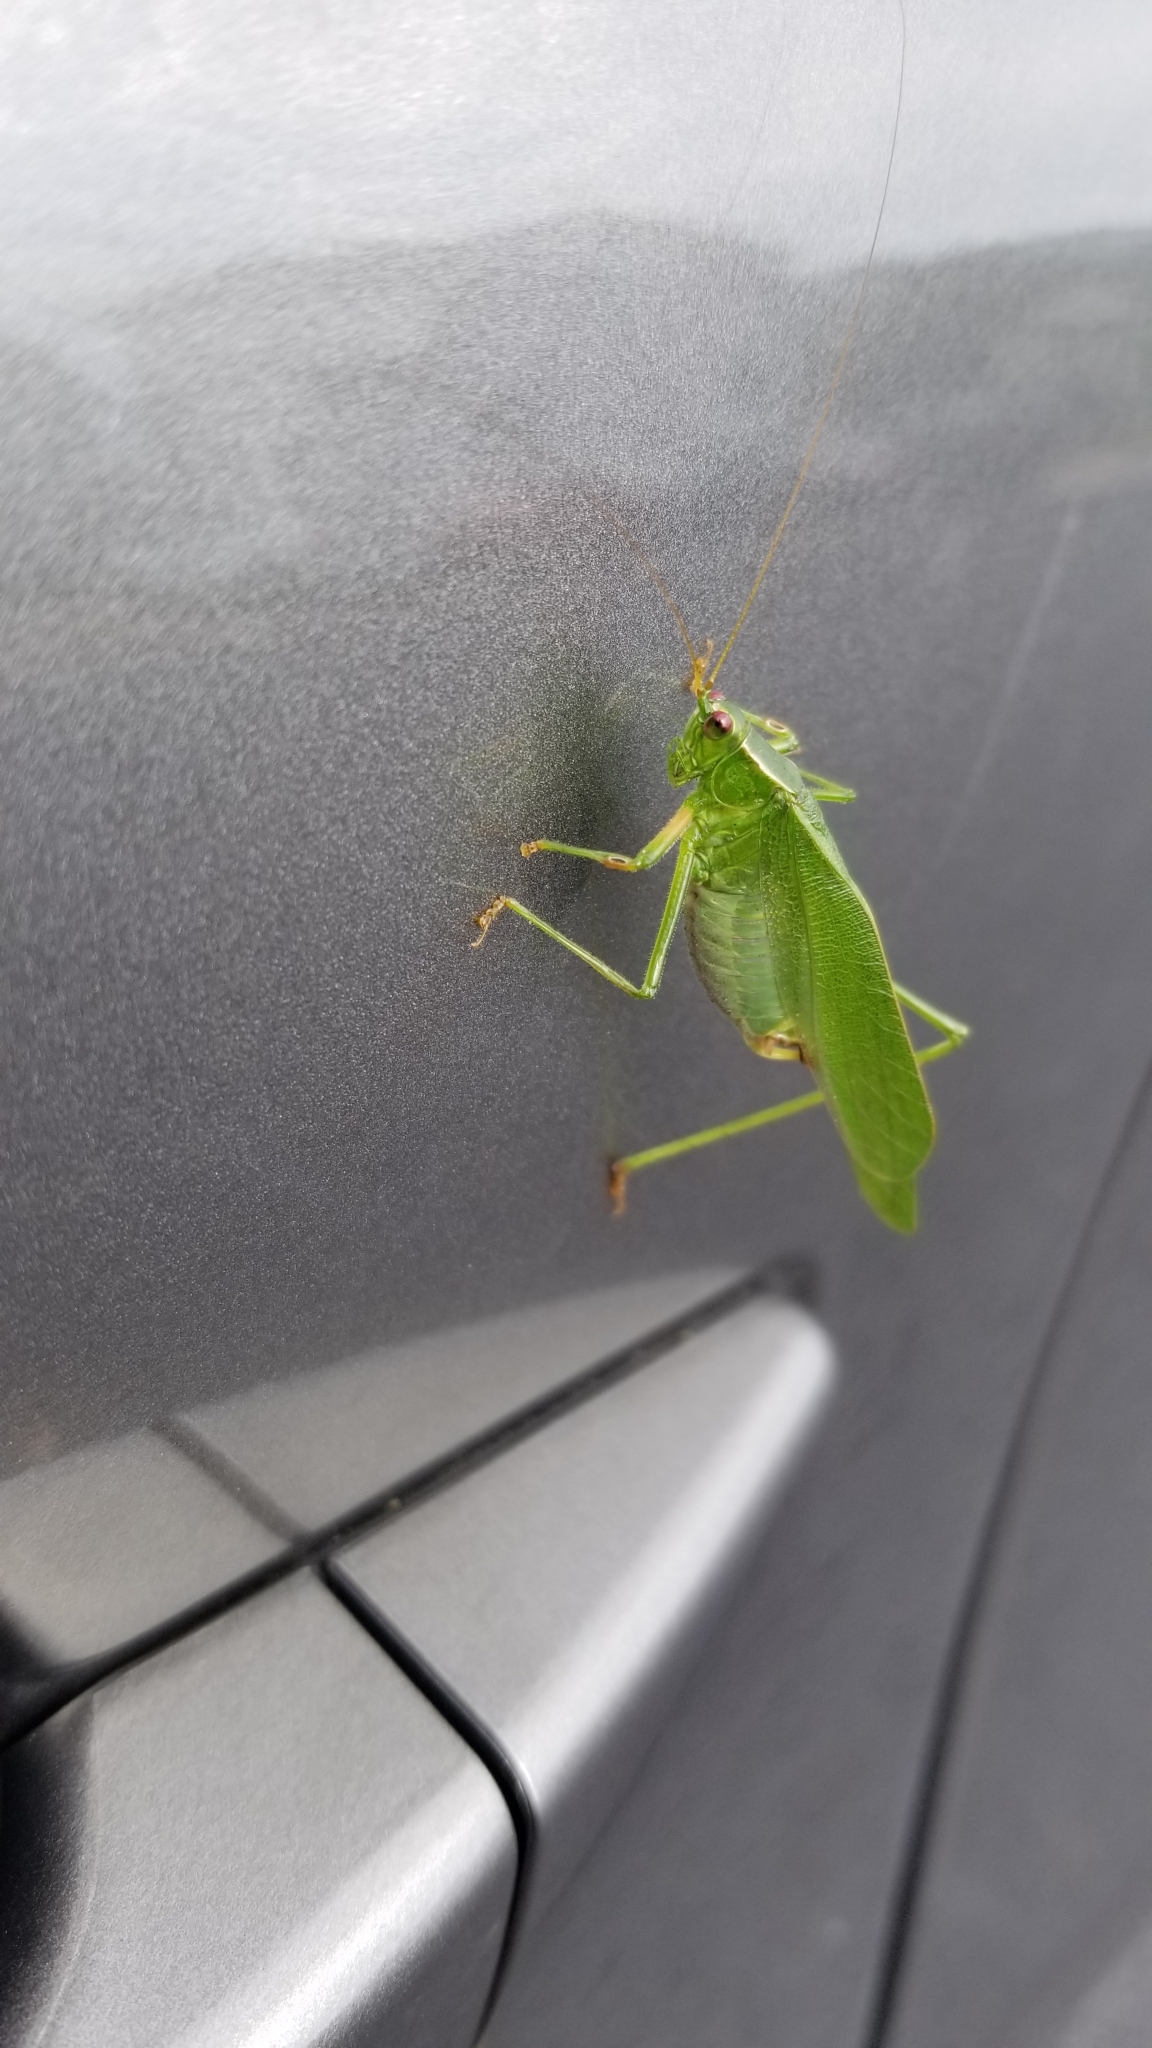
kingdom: Animalia
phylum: Arthropoda
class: Insecta
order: Orthoptera
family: Tettigoniidae
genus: Scudderia
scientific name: Scudderia furcata
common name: Fork-tailed bush katydid
